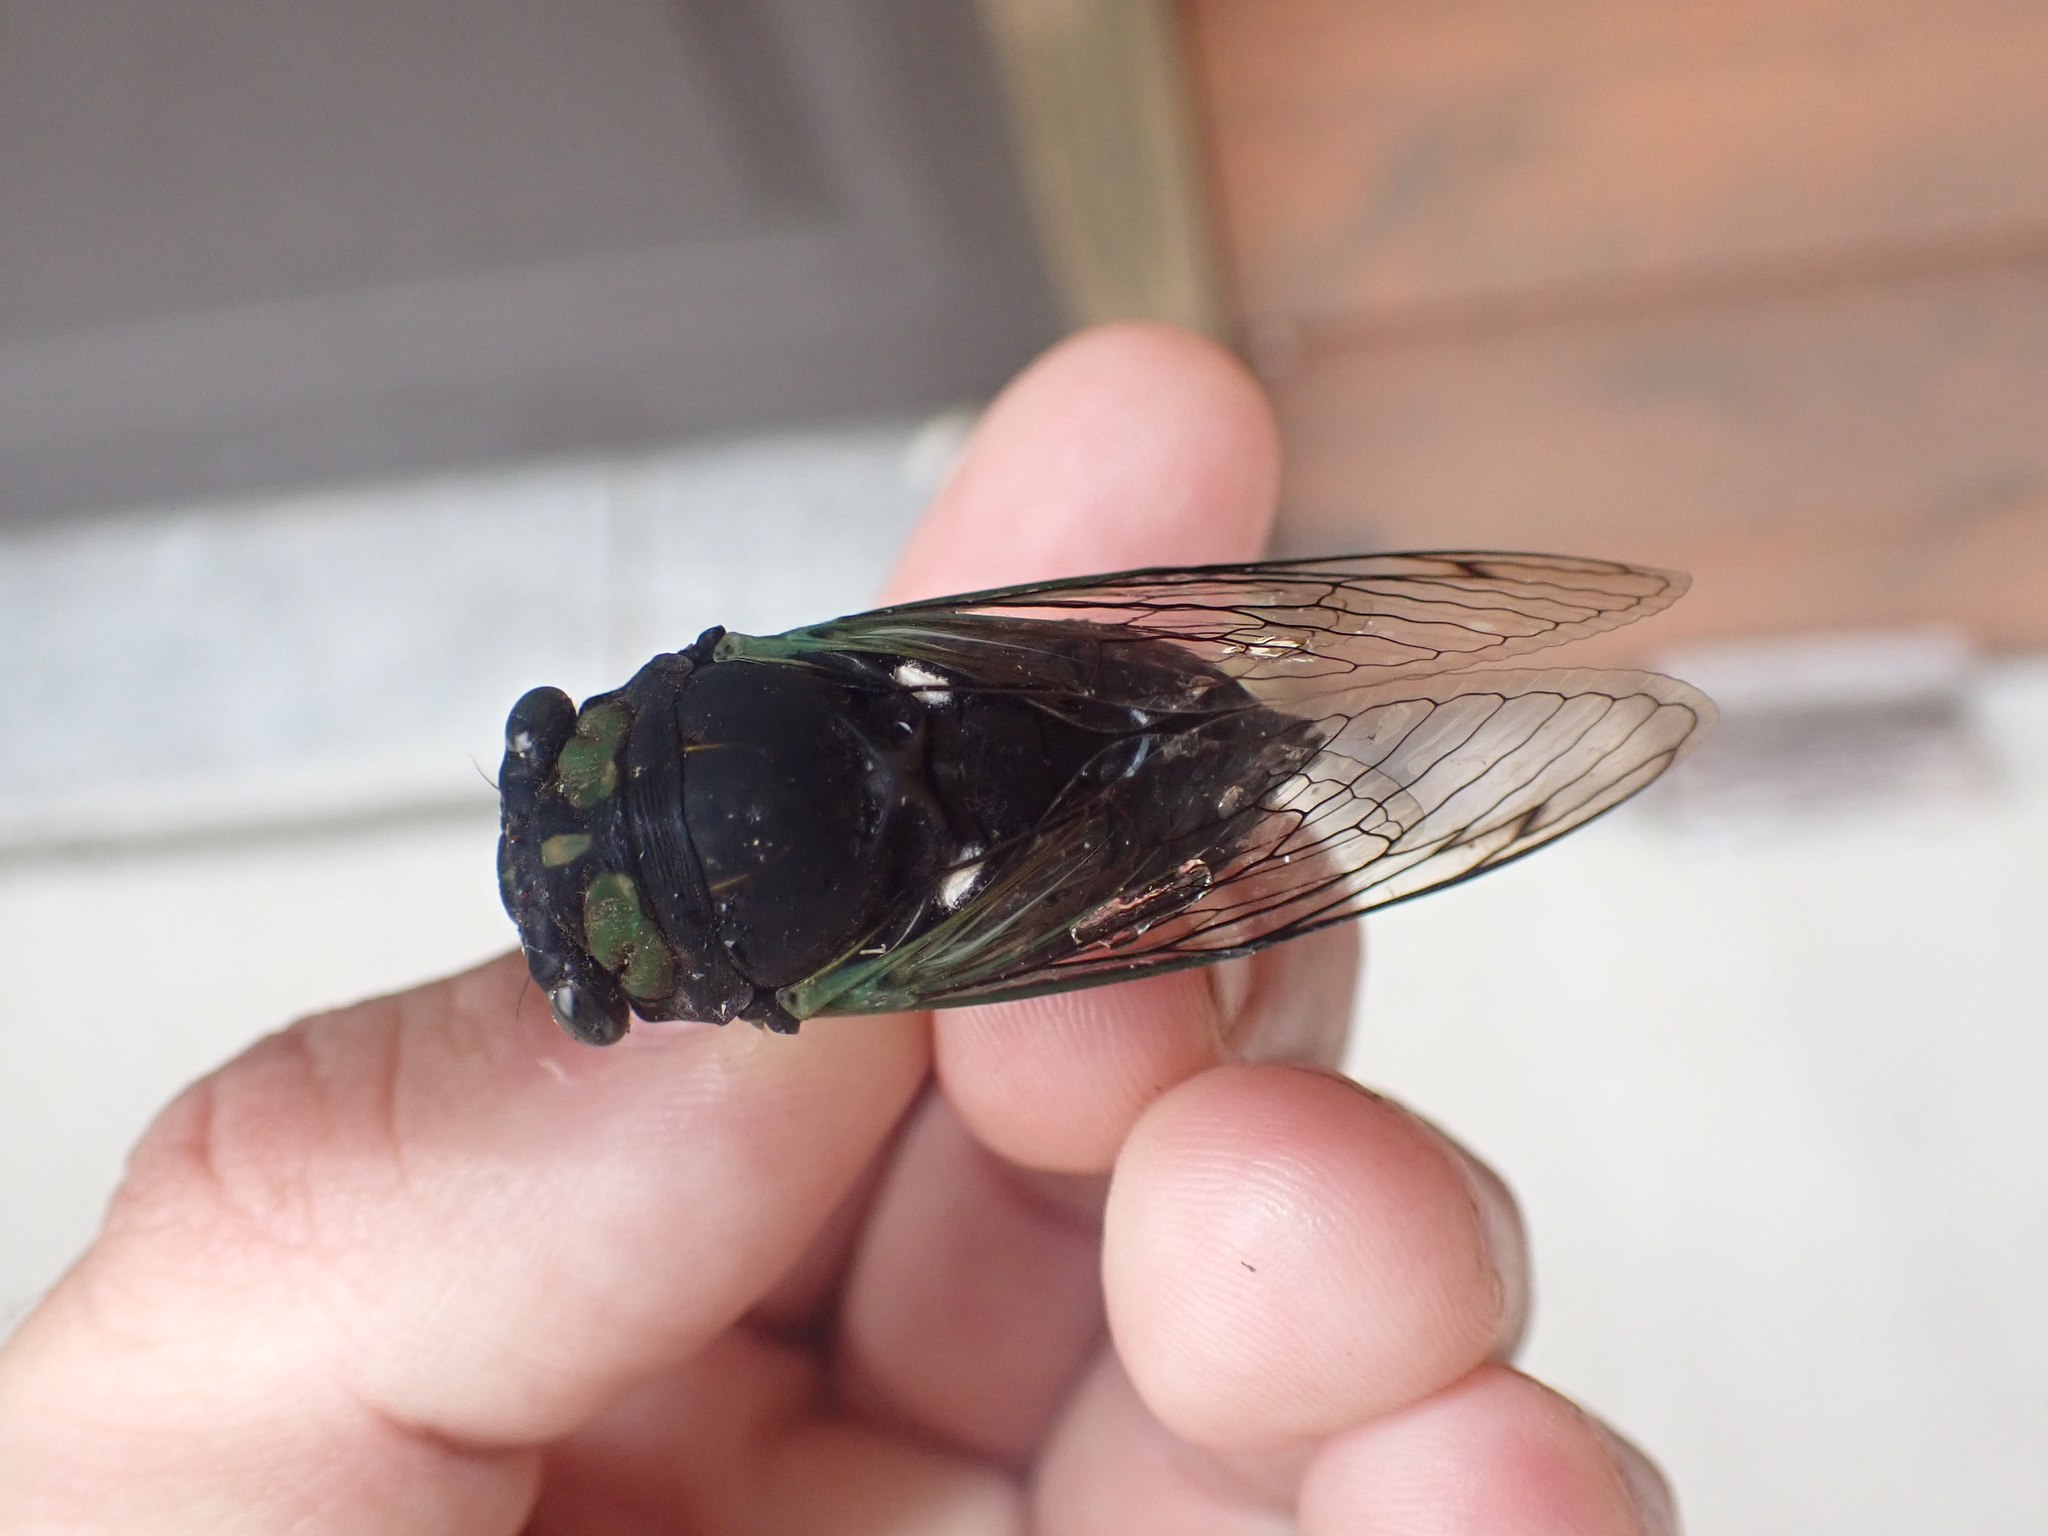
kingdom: Animalia
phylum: Arthropoda
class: Insecta
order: Hemiptera
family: Cicadidae
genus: Neotibicen
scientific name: Neotibicen tibicen
